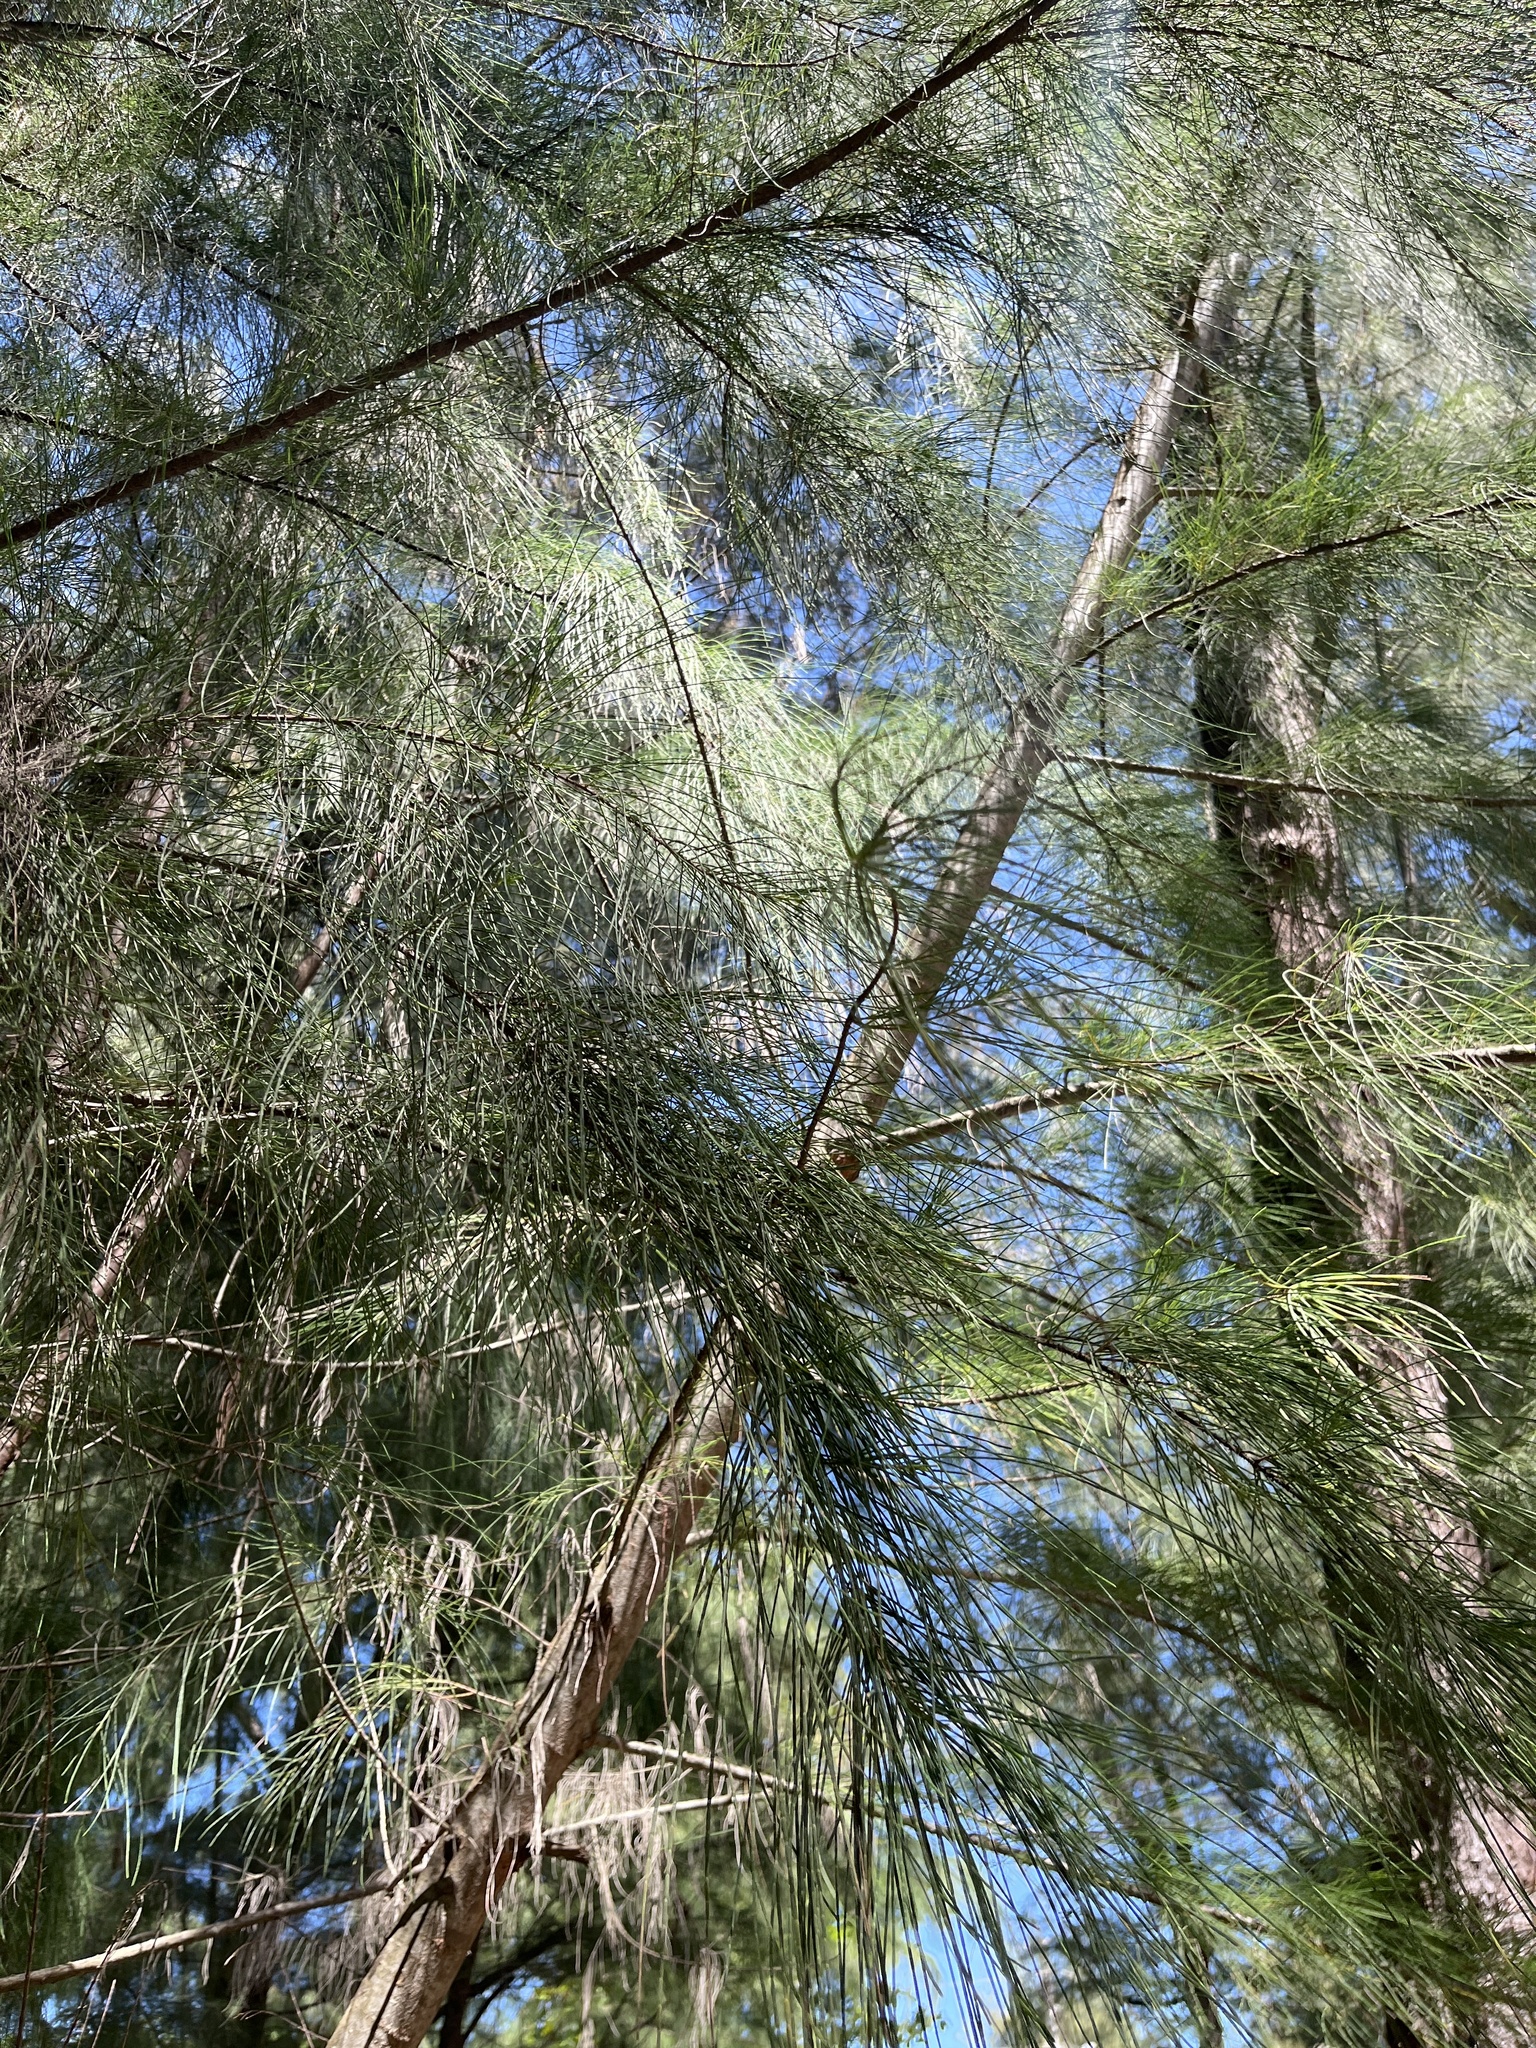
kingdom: Plantae
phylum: Tracheophyta
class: Magnoliopsida
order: Fagales
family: Casuarinaceae
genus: Casuarina
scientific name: Casuarina equisetifolia
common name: Beach sheoak
